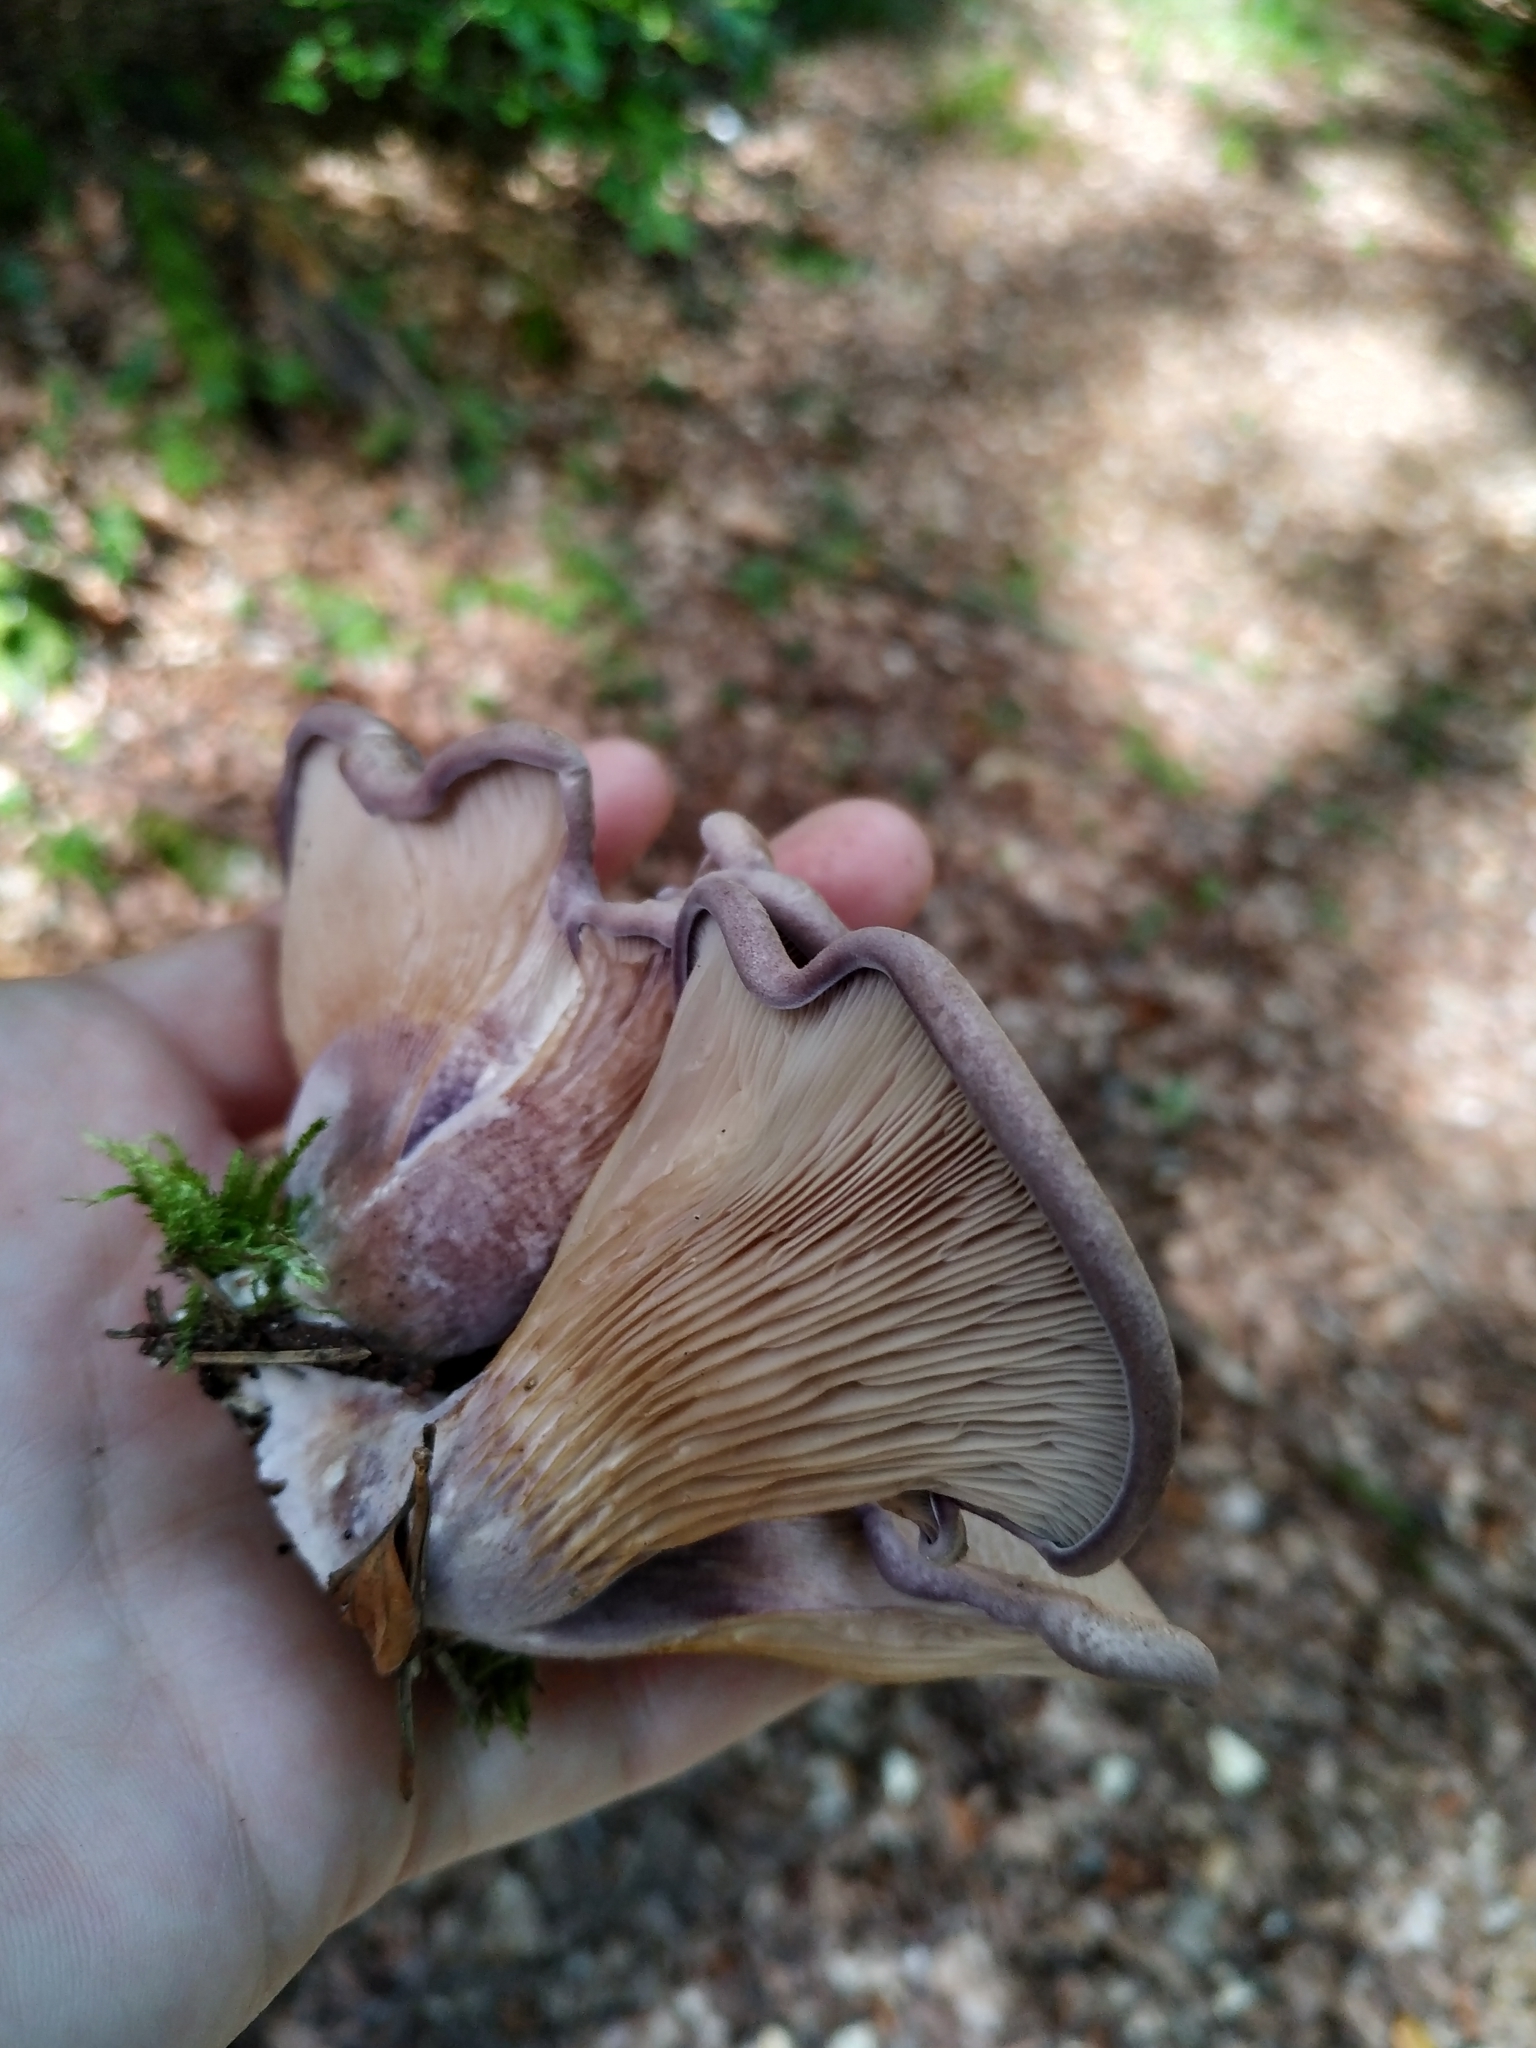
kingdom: Fungi
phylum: Basidiomycota
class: Agaricomycetes
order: Polyporales
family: Panaceae
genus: Panus
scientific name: Panus conchatus
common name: Lilac oysterling
